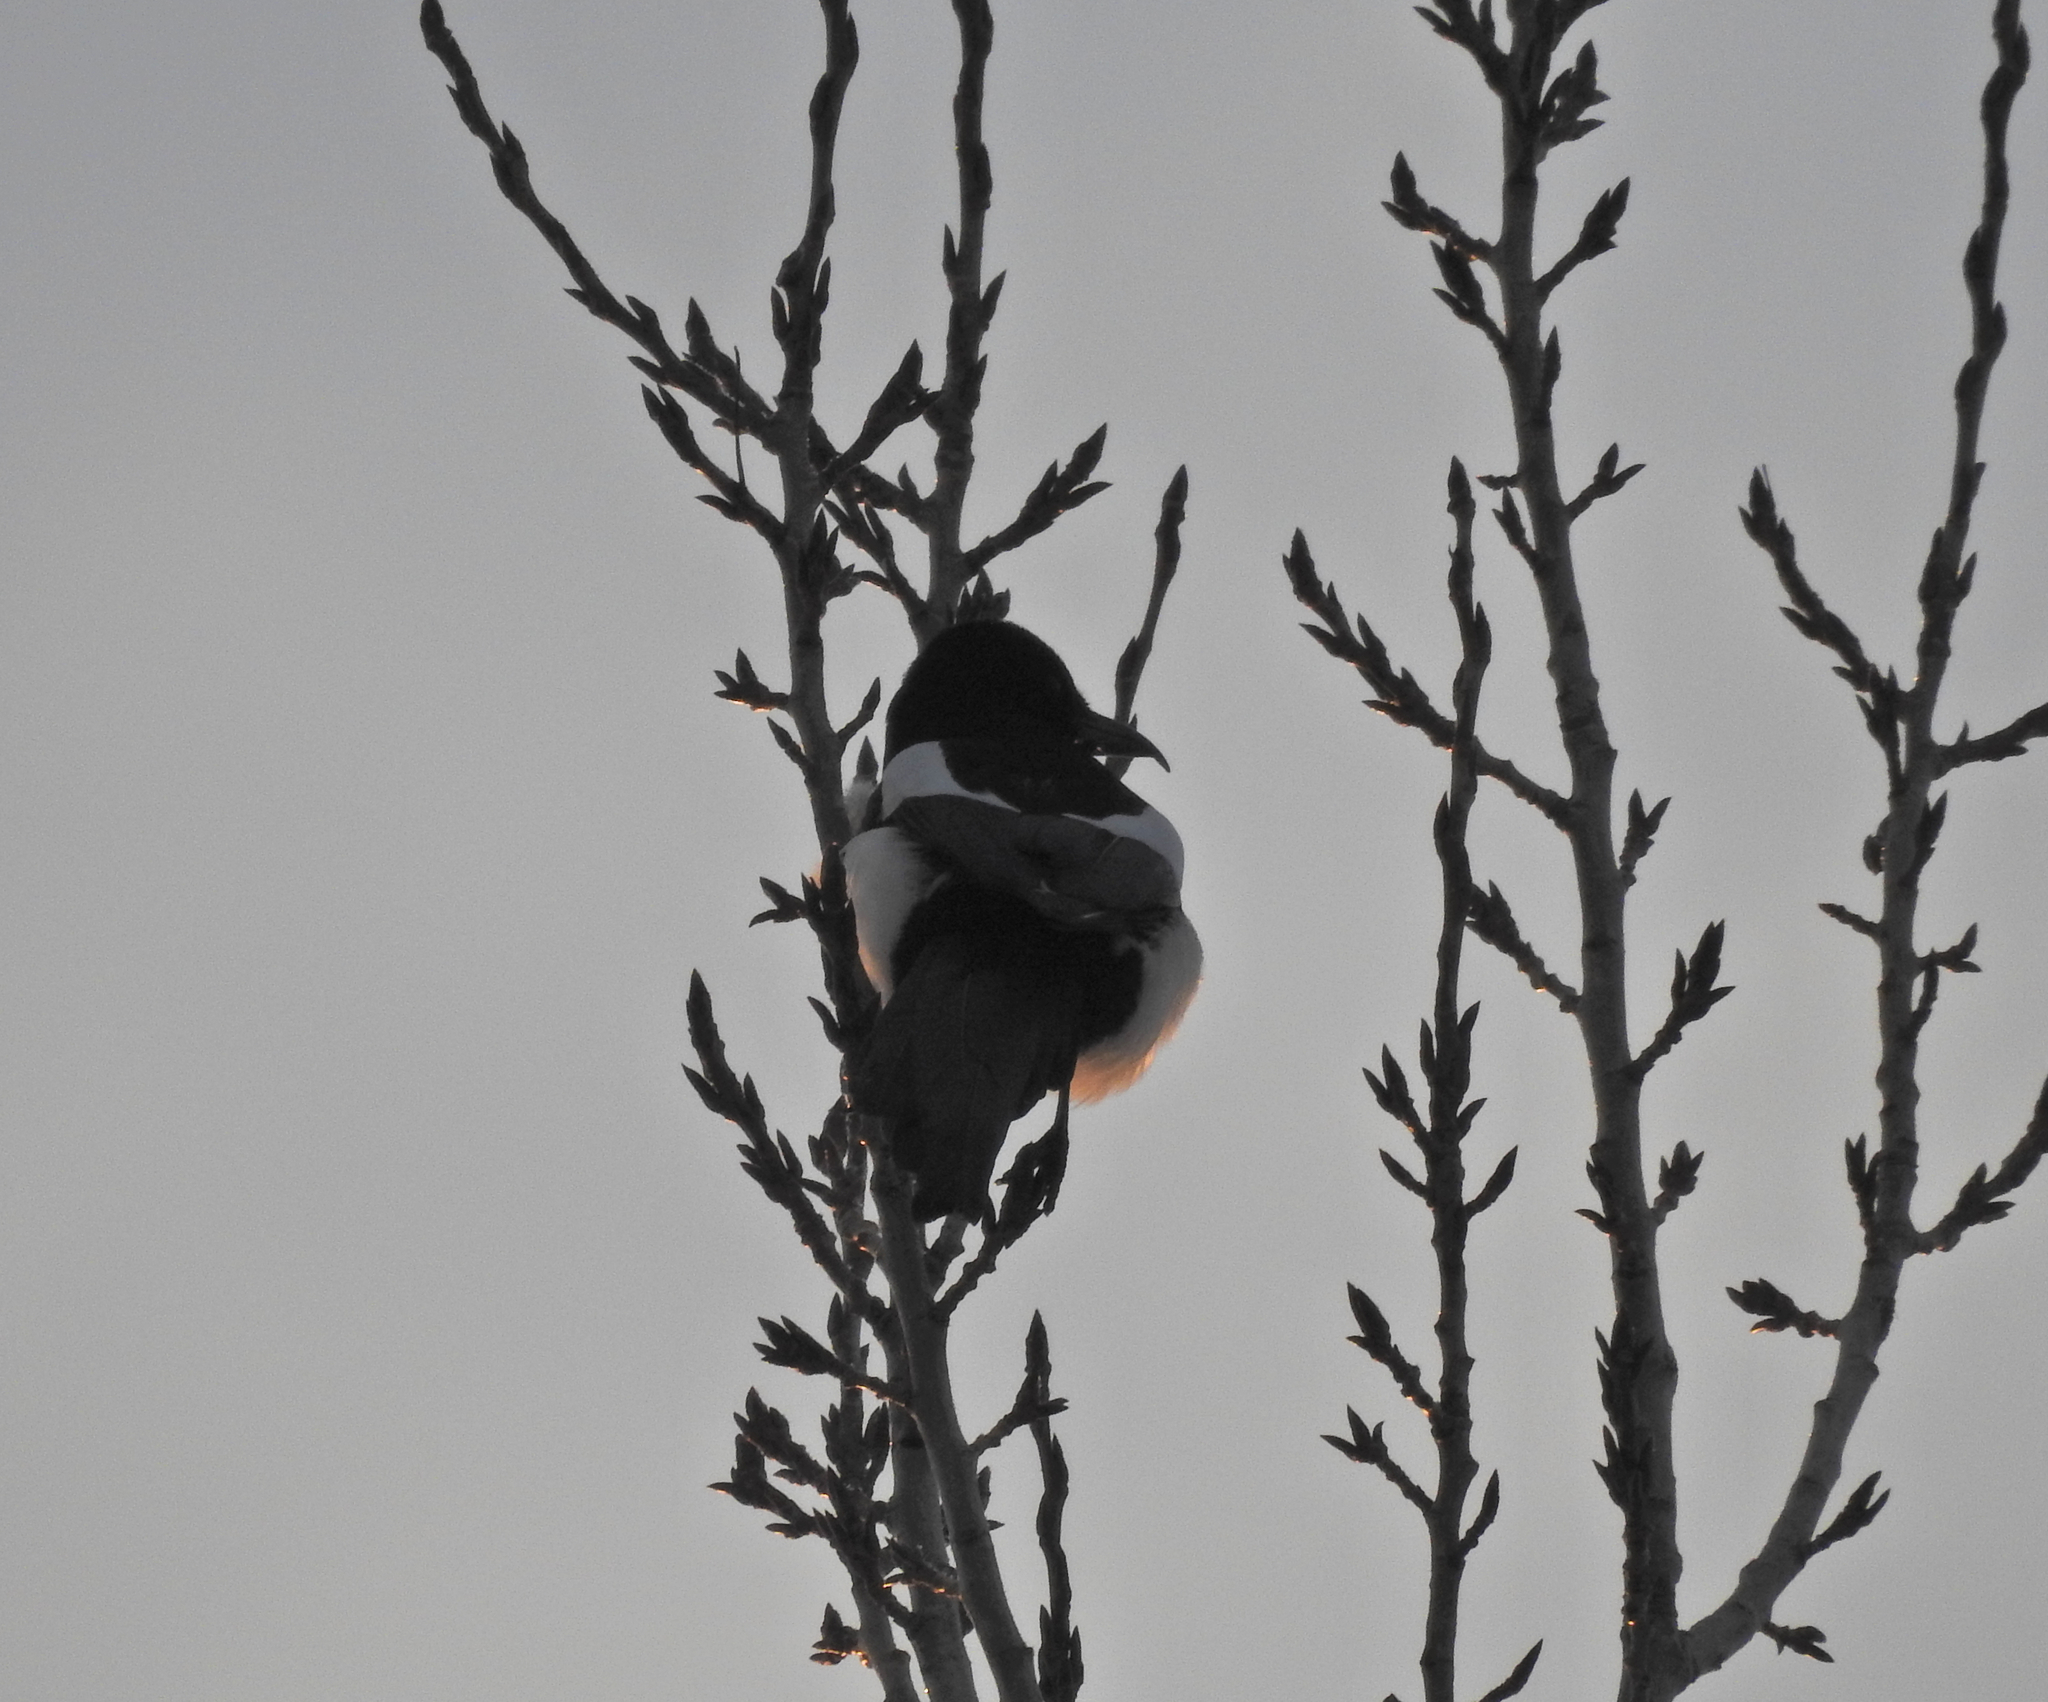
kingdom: Animalia
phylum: Chordata
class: Aves
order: Passeriformes
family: Corvidae
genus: Pica
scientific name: Pica pica
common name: Eurasian magpie
